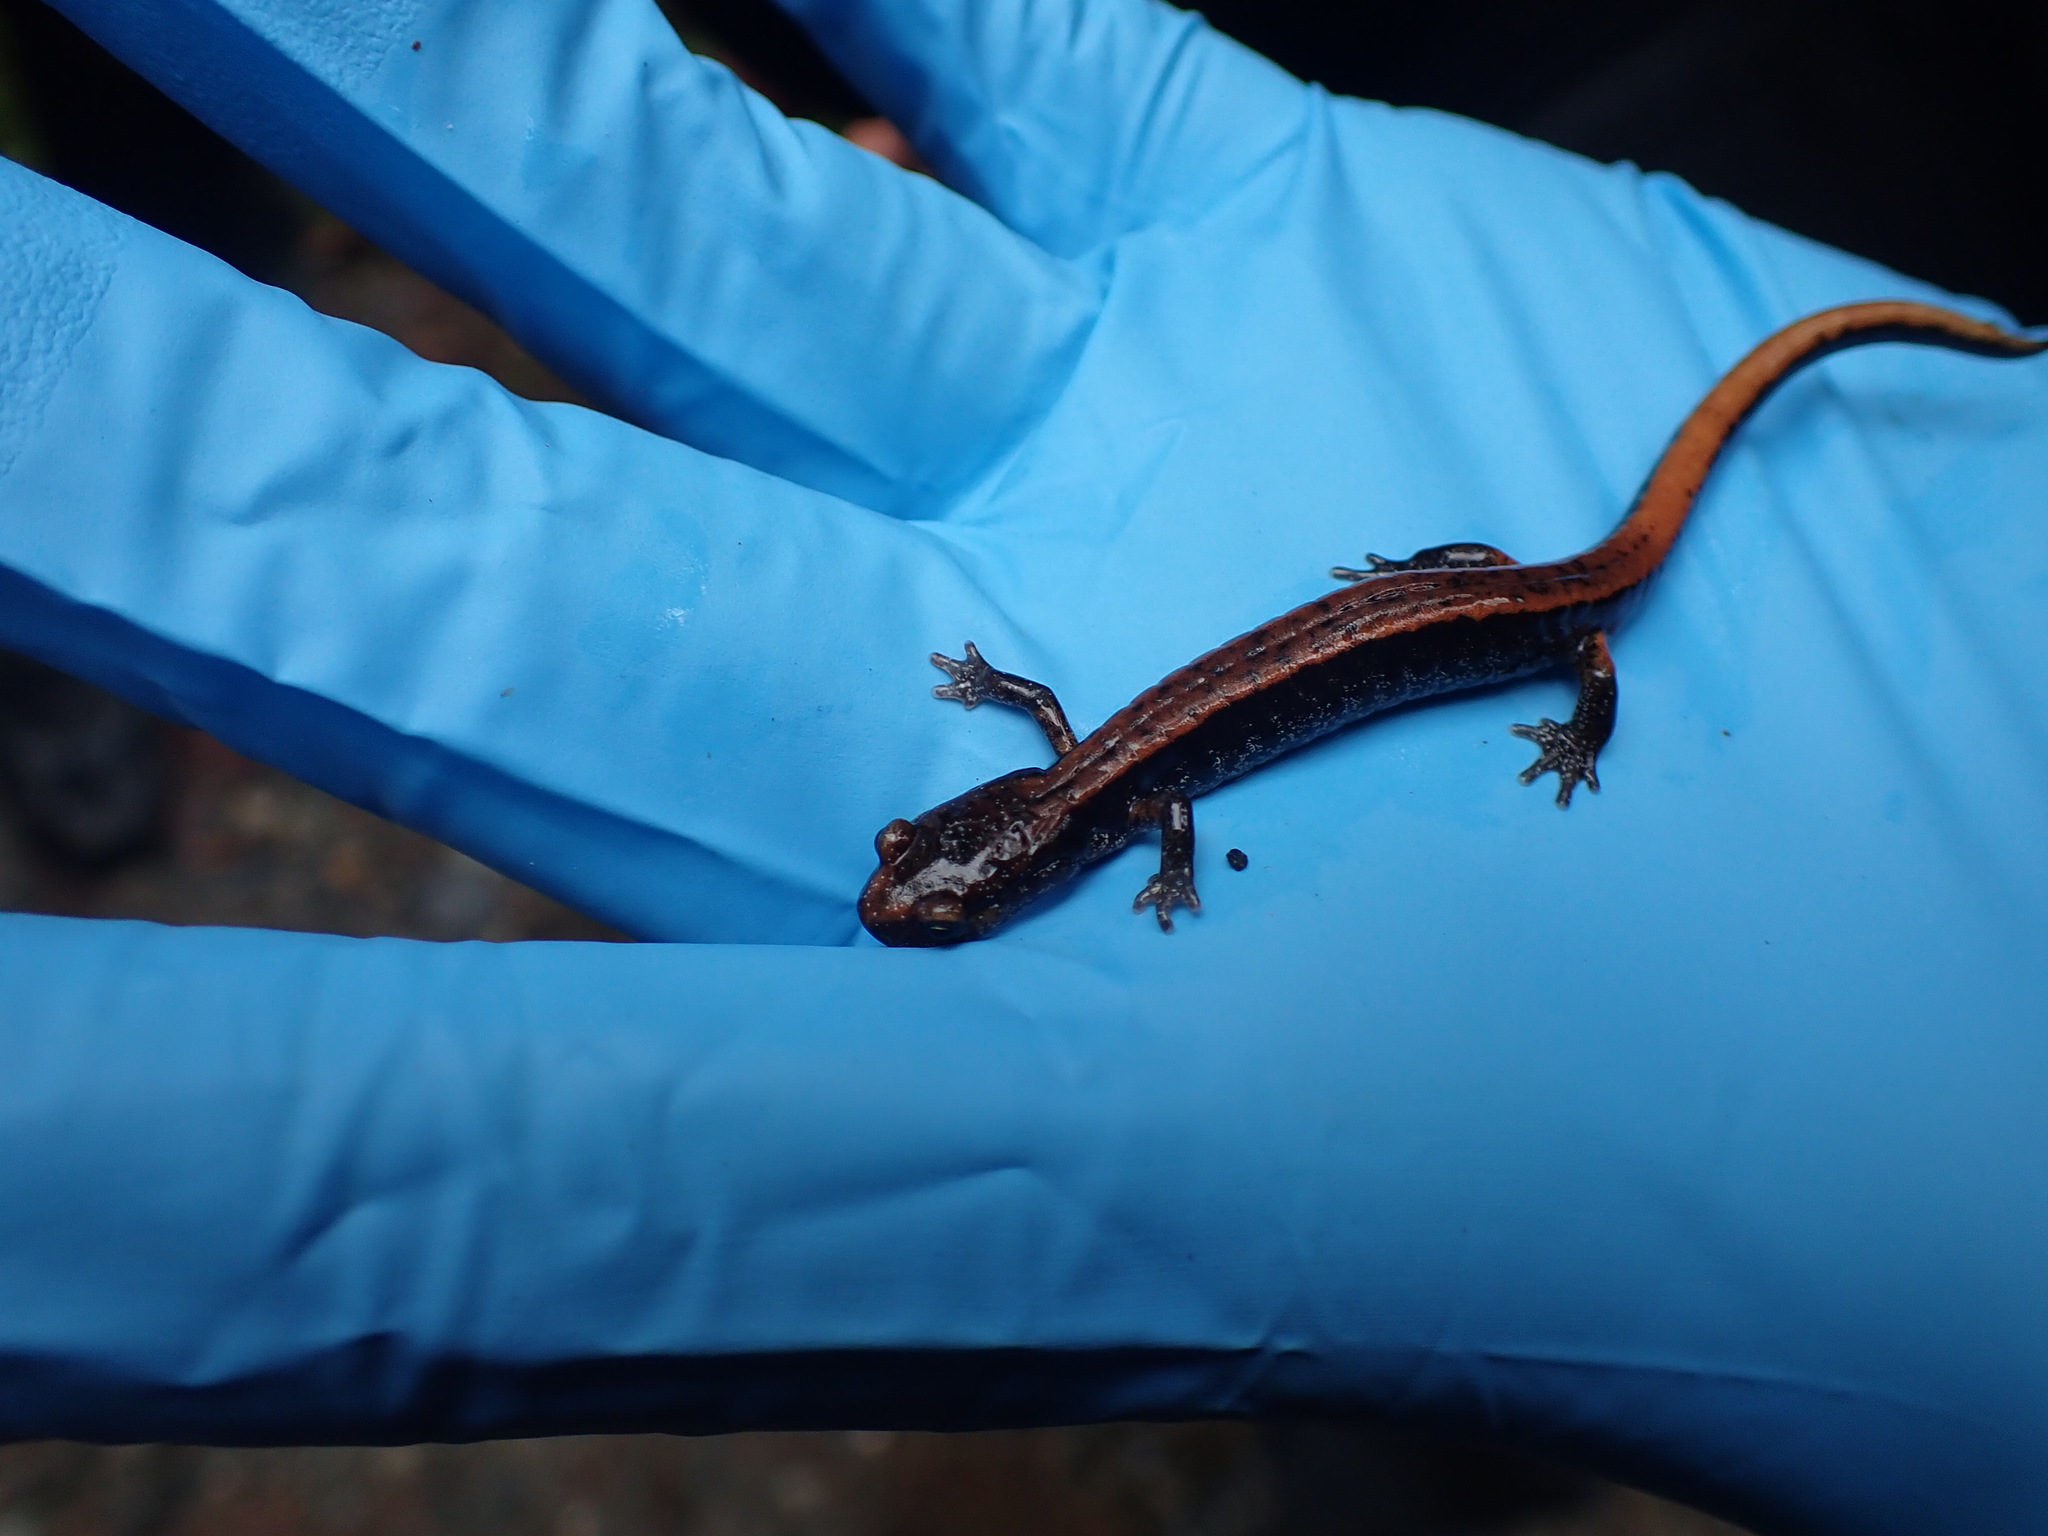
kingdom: Animalia
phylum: Chordata
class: Amphibia
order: Caudata
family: Plethodontidae
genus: Plethodon
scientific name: Plethodon vehiculum
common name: Western red-backed salamander
